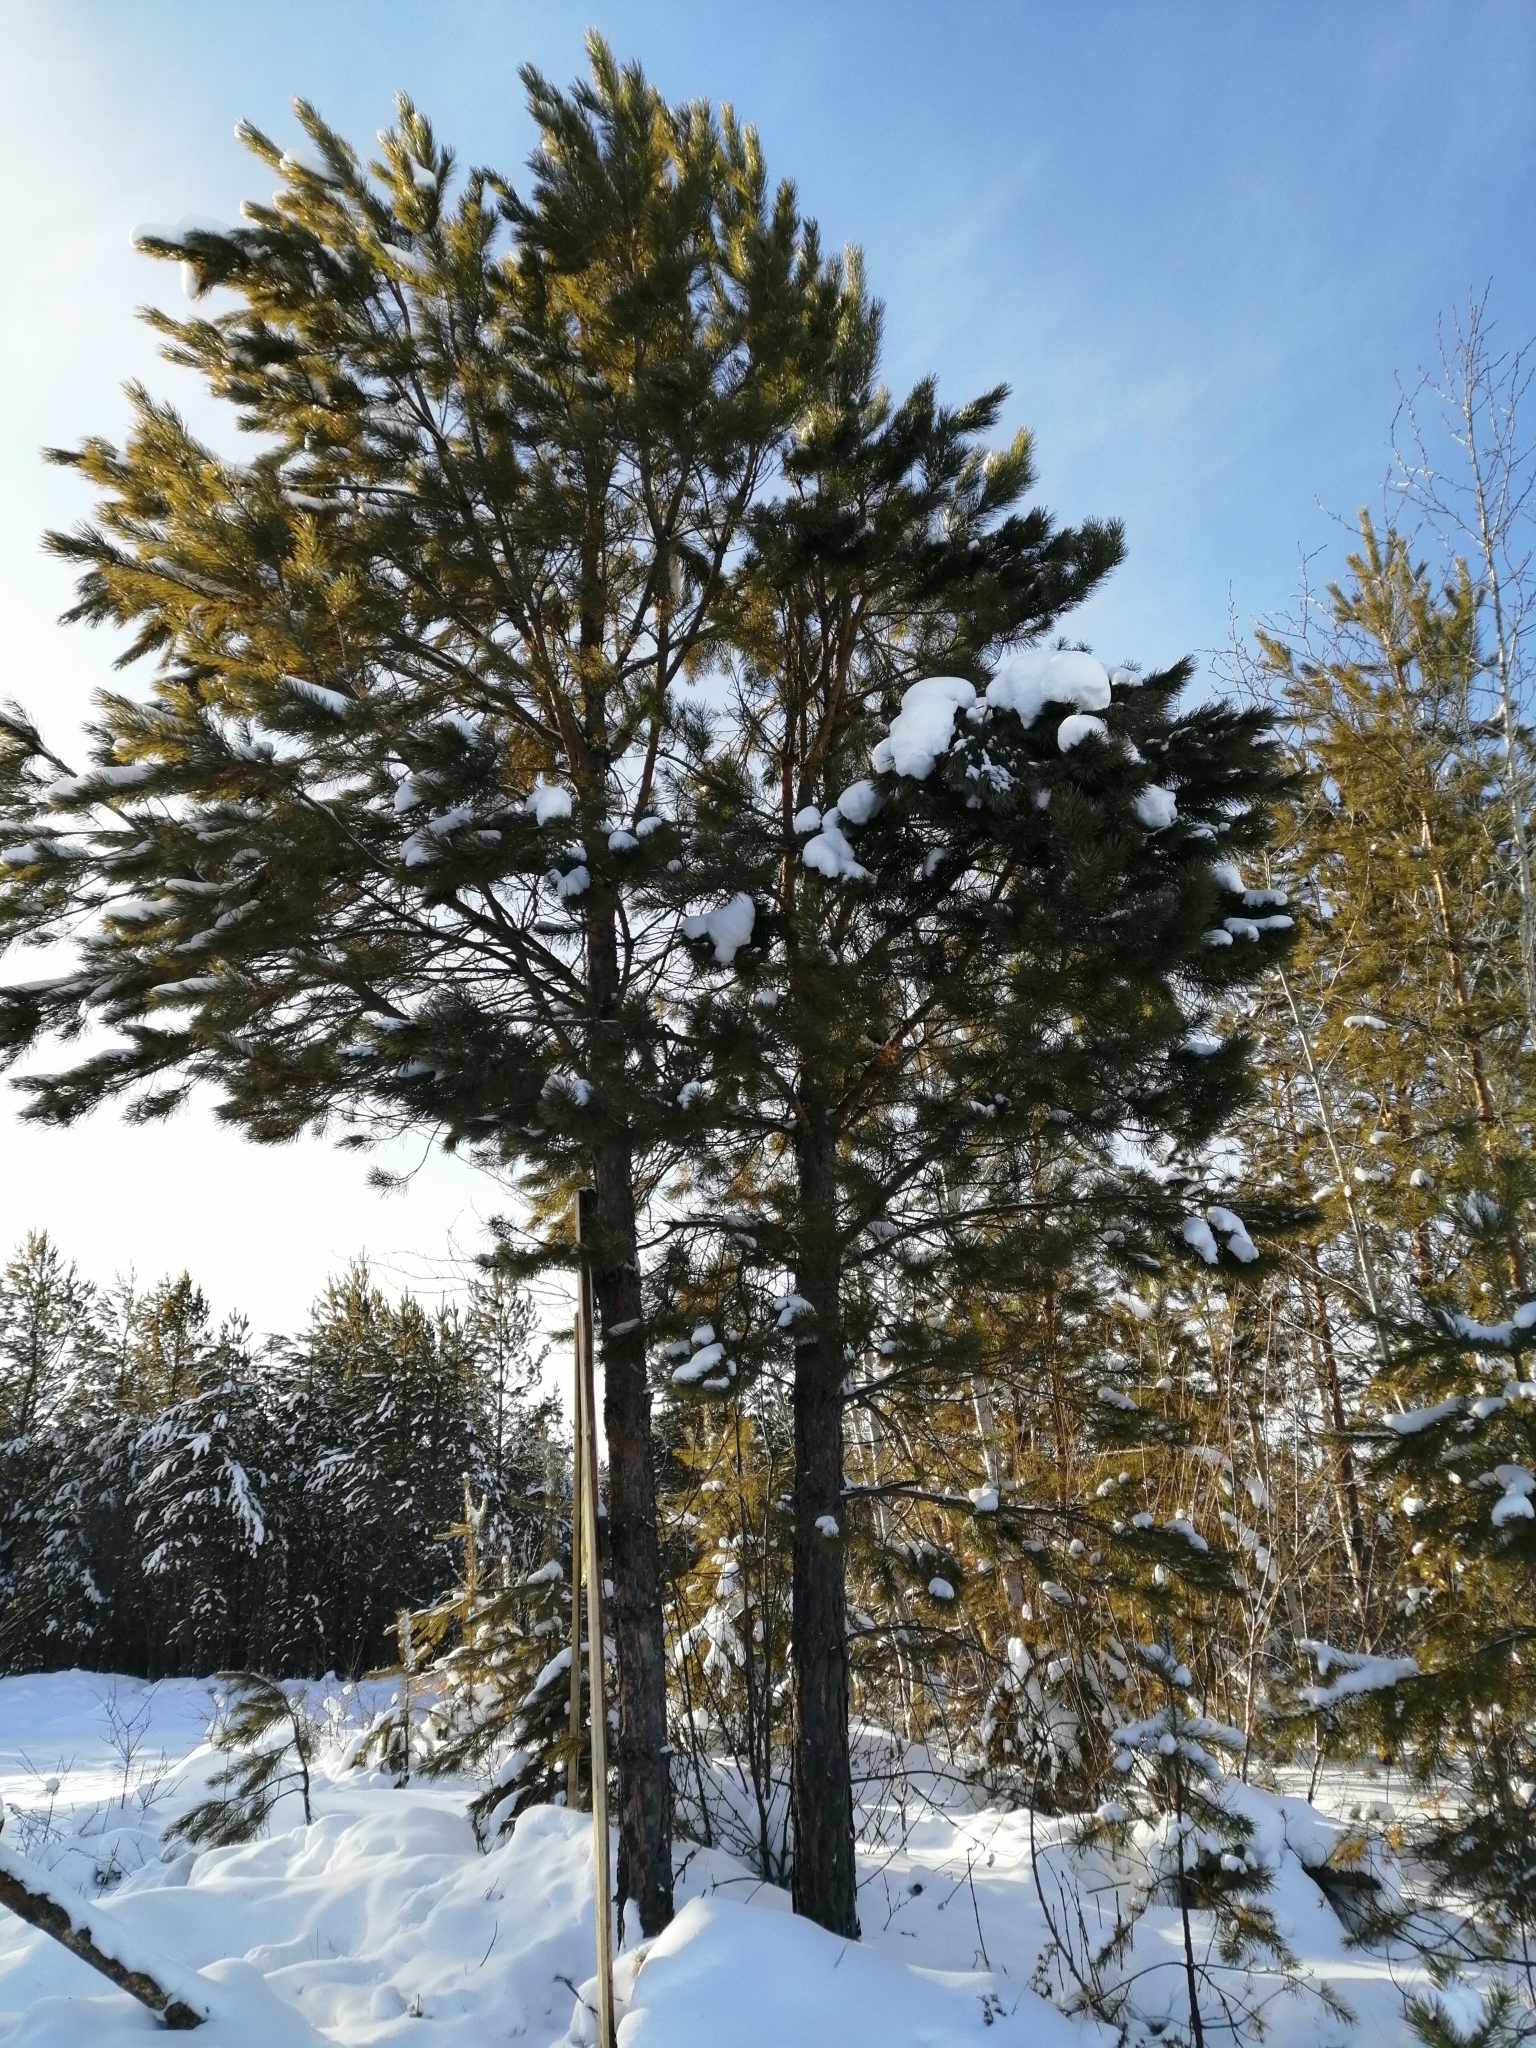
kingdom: Plantae
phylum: Tracheophyta
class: Pinopsida
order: Pinales
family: Pinaceae
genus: Pinus
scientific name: Pinus sylvestris
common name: Scots pine
